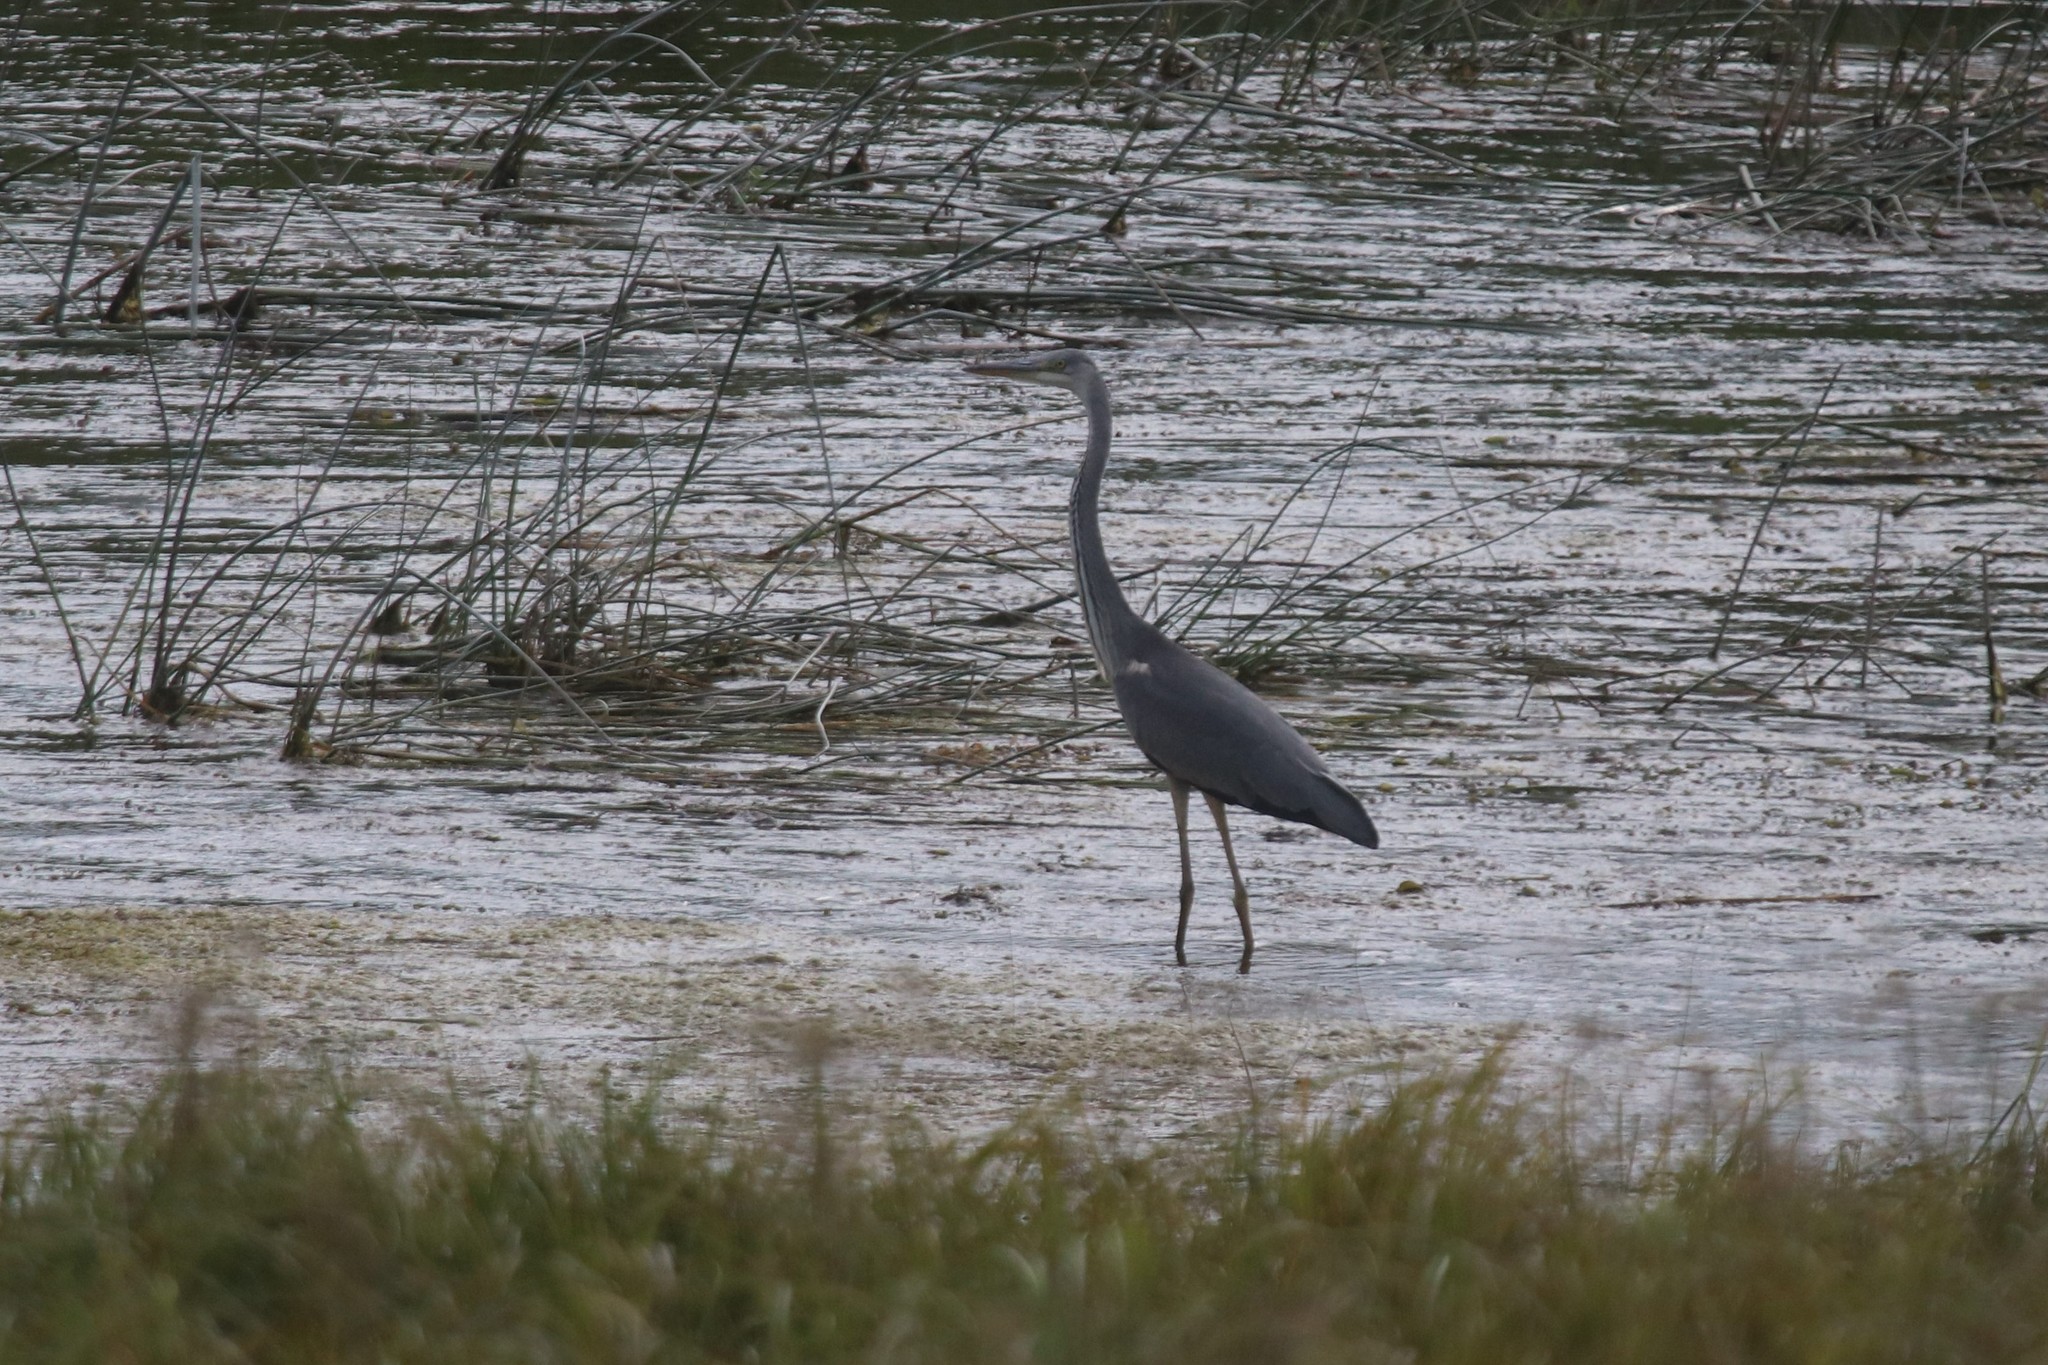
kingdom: Animalia
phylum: Chordata
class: Aves
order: Pelecaniformes
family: Ardeidae
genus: Ardea
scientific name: Ardea cinerea
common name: Grey heron
